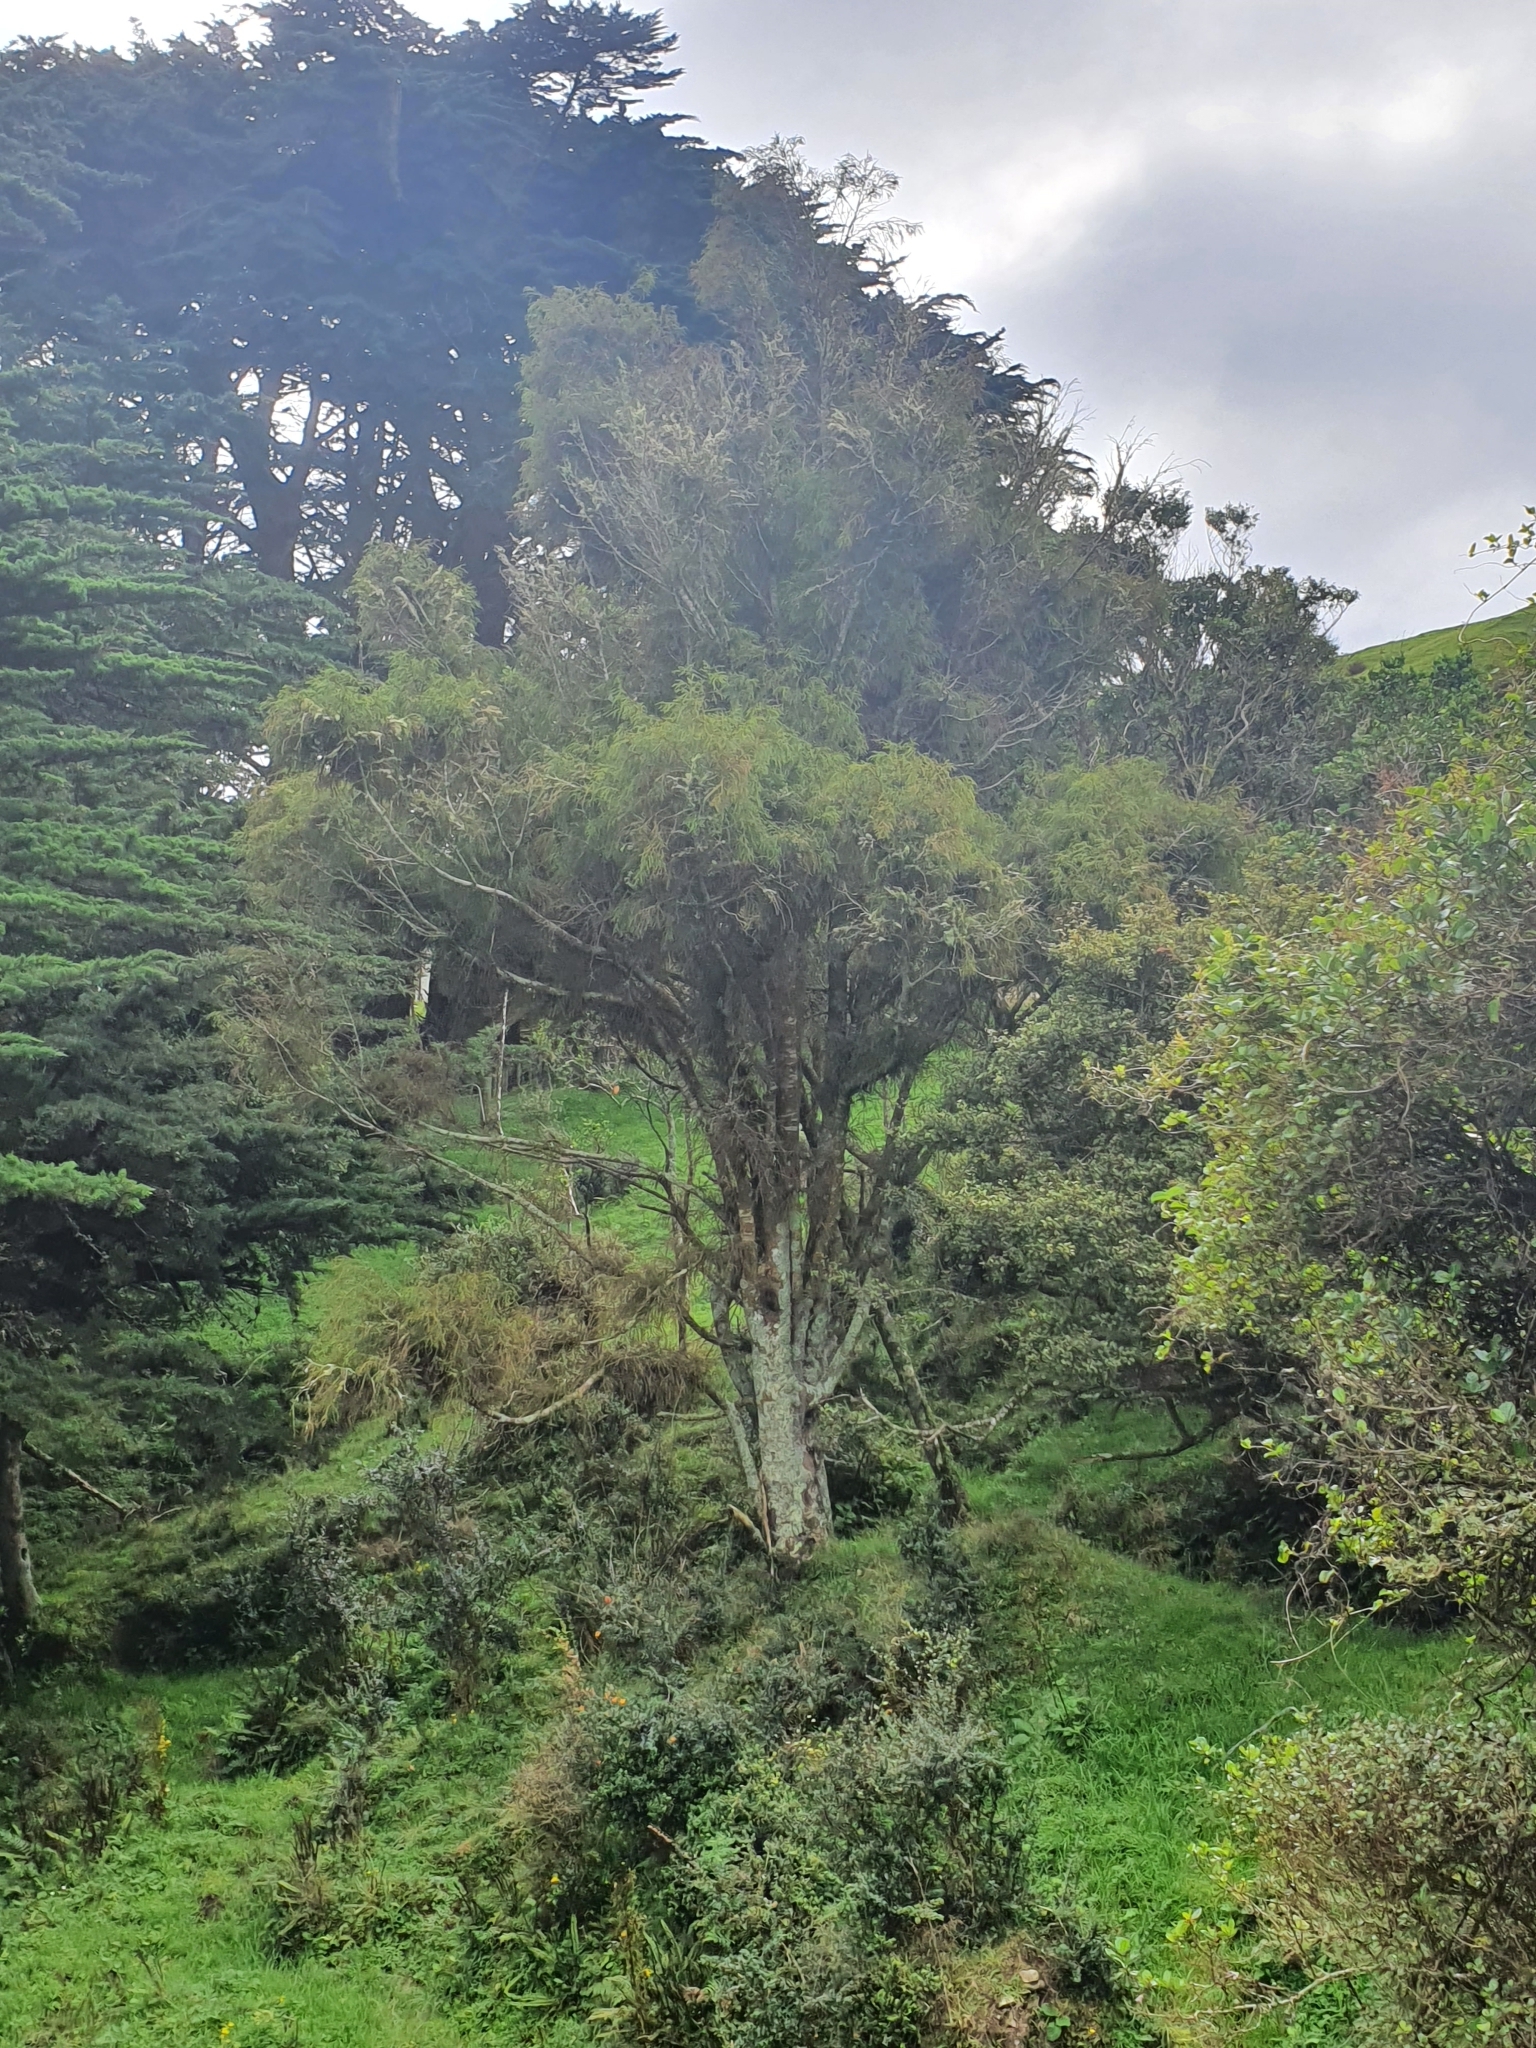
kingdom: Plantae
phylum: Tracheophyta
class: Pinopsida
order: Pinales
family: Podocarpaceae
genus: Dacrydium
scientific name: Dacrydium cupressinum
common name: Red pine
